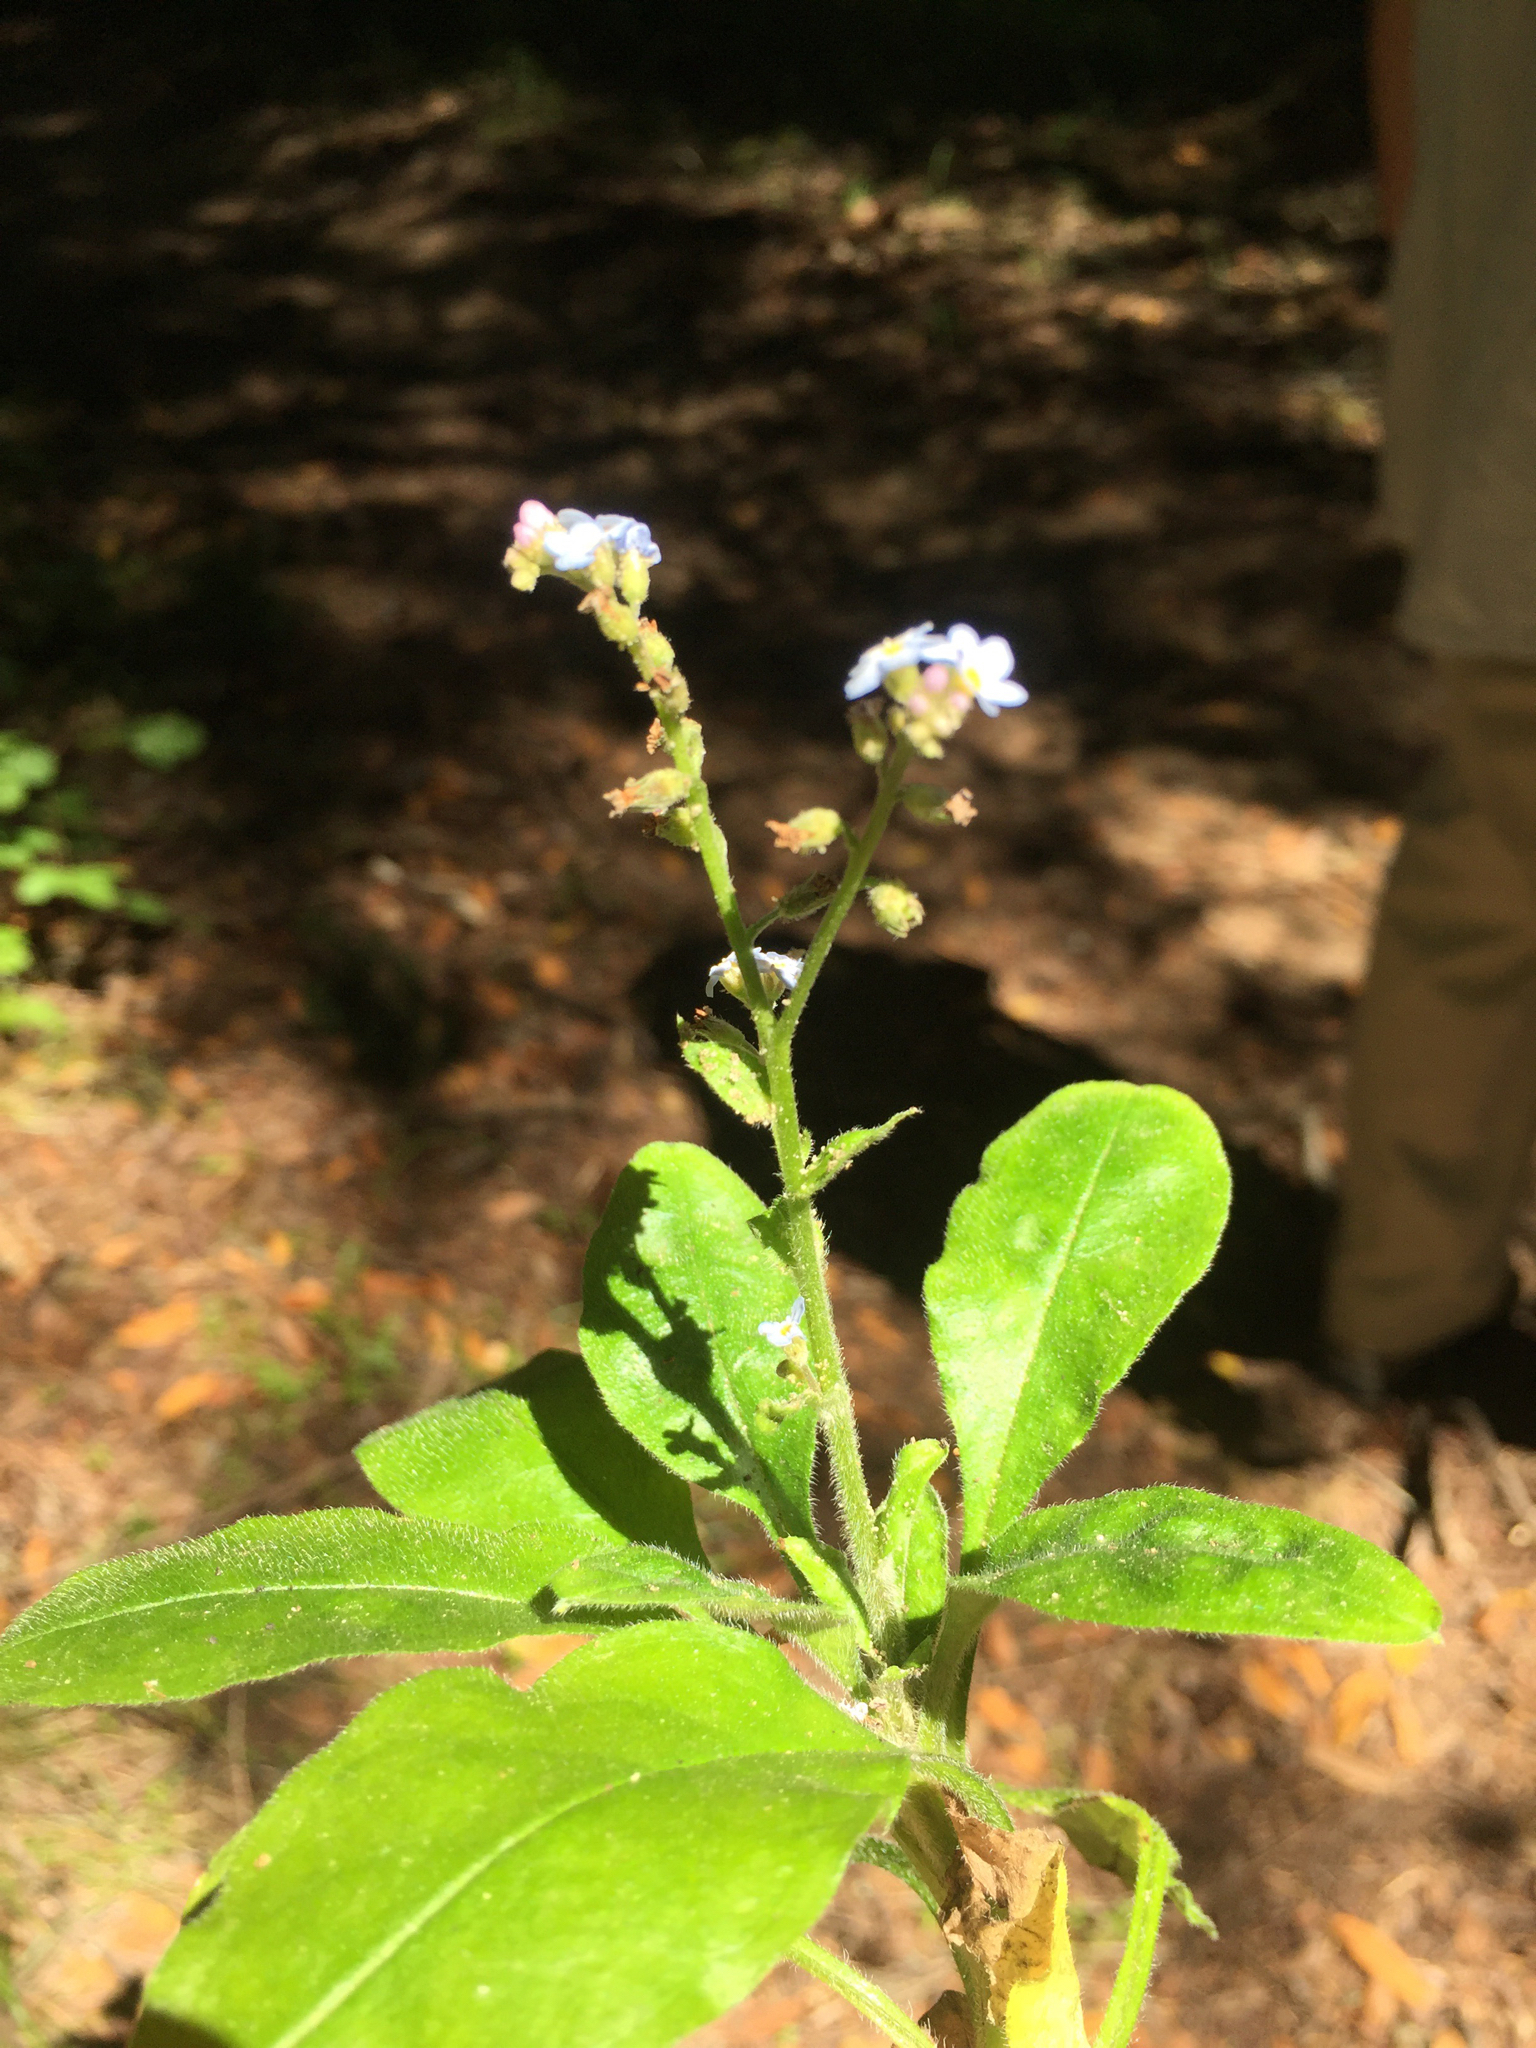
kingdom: Plantae
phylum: Tracheophyta
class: Magnoliopsida
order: Boraginales
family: Boraginaceae
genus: Myosotis
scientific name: Myosotis latifolia
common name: Broadleaf forget-me-not
